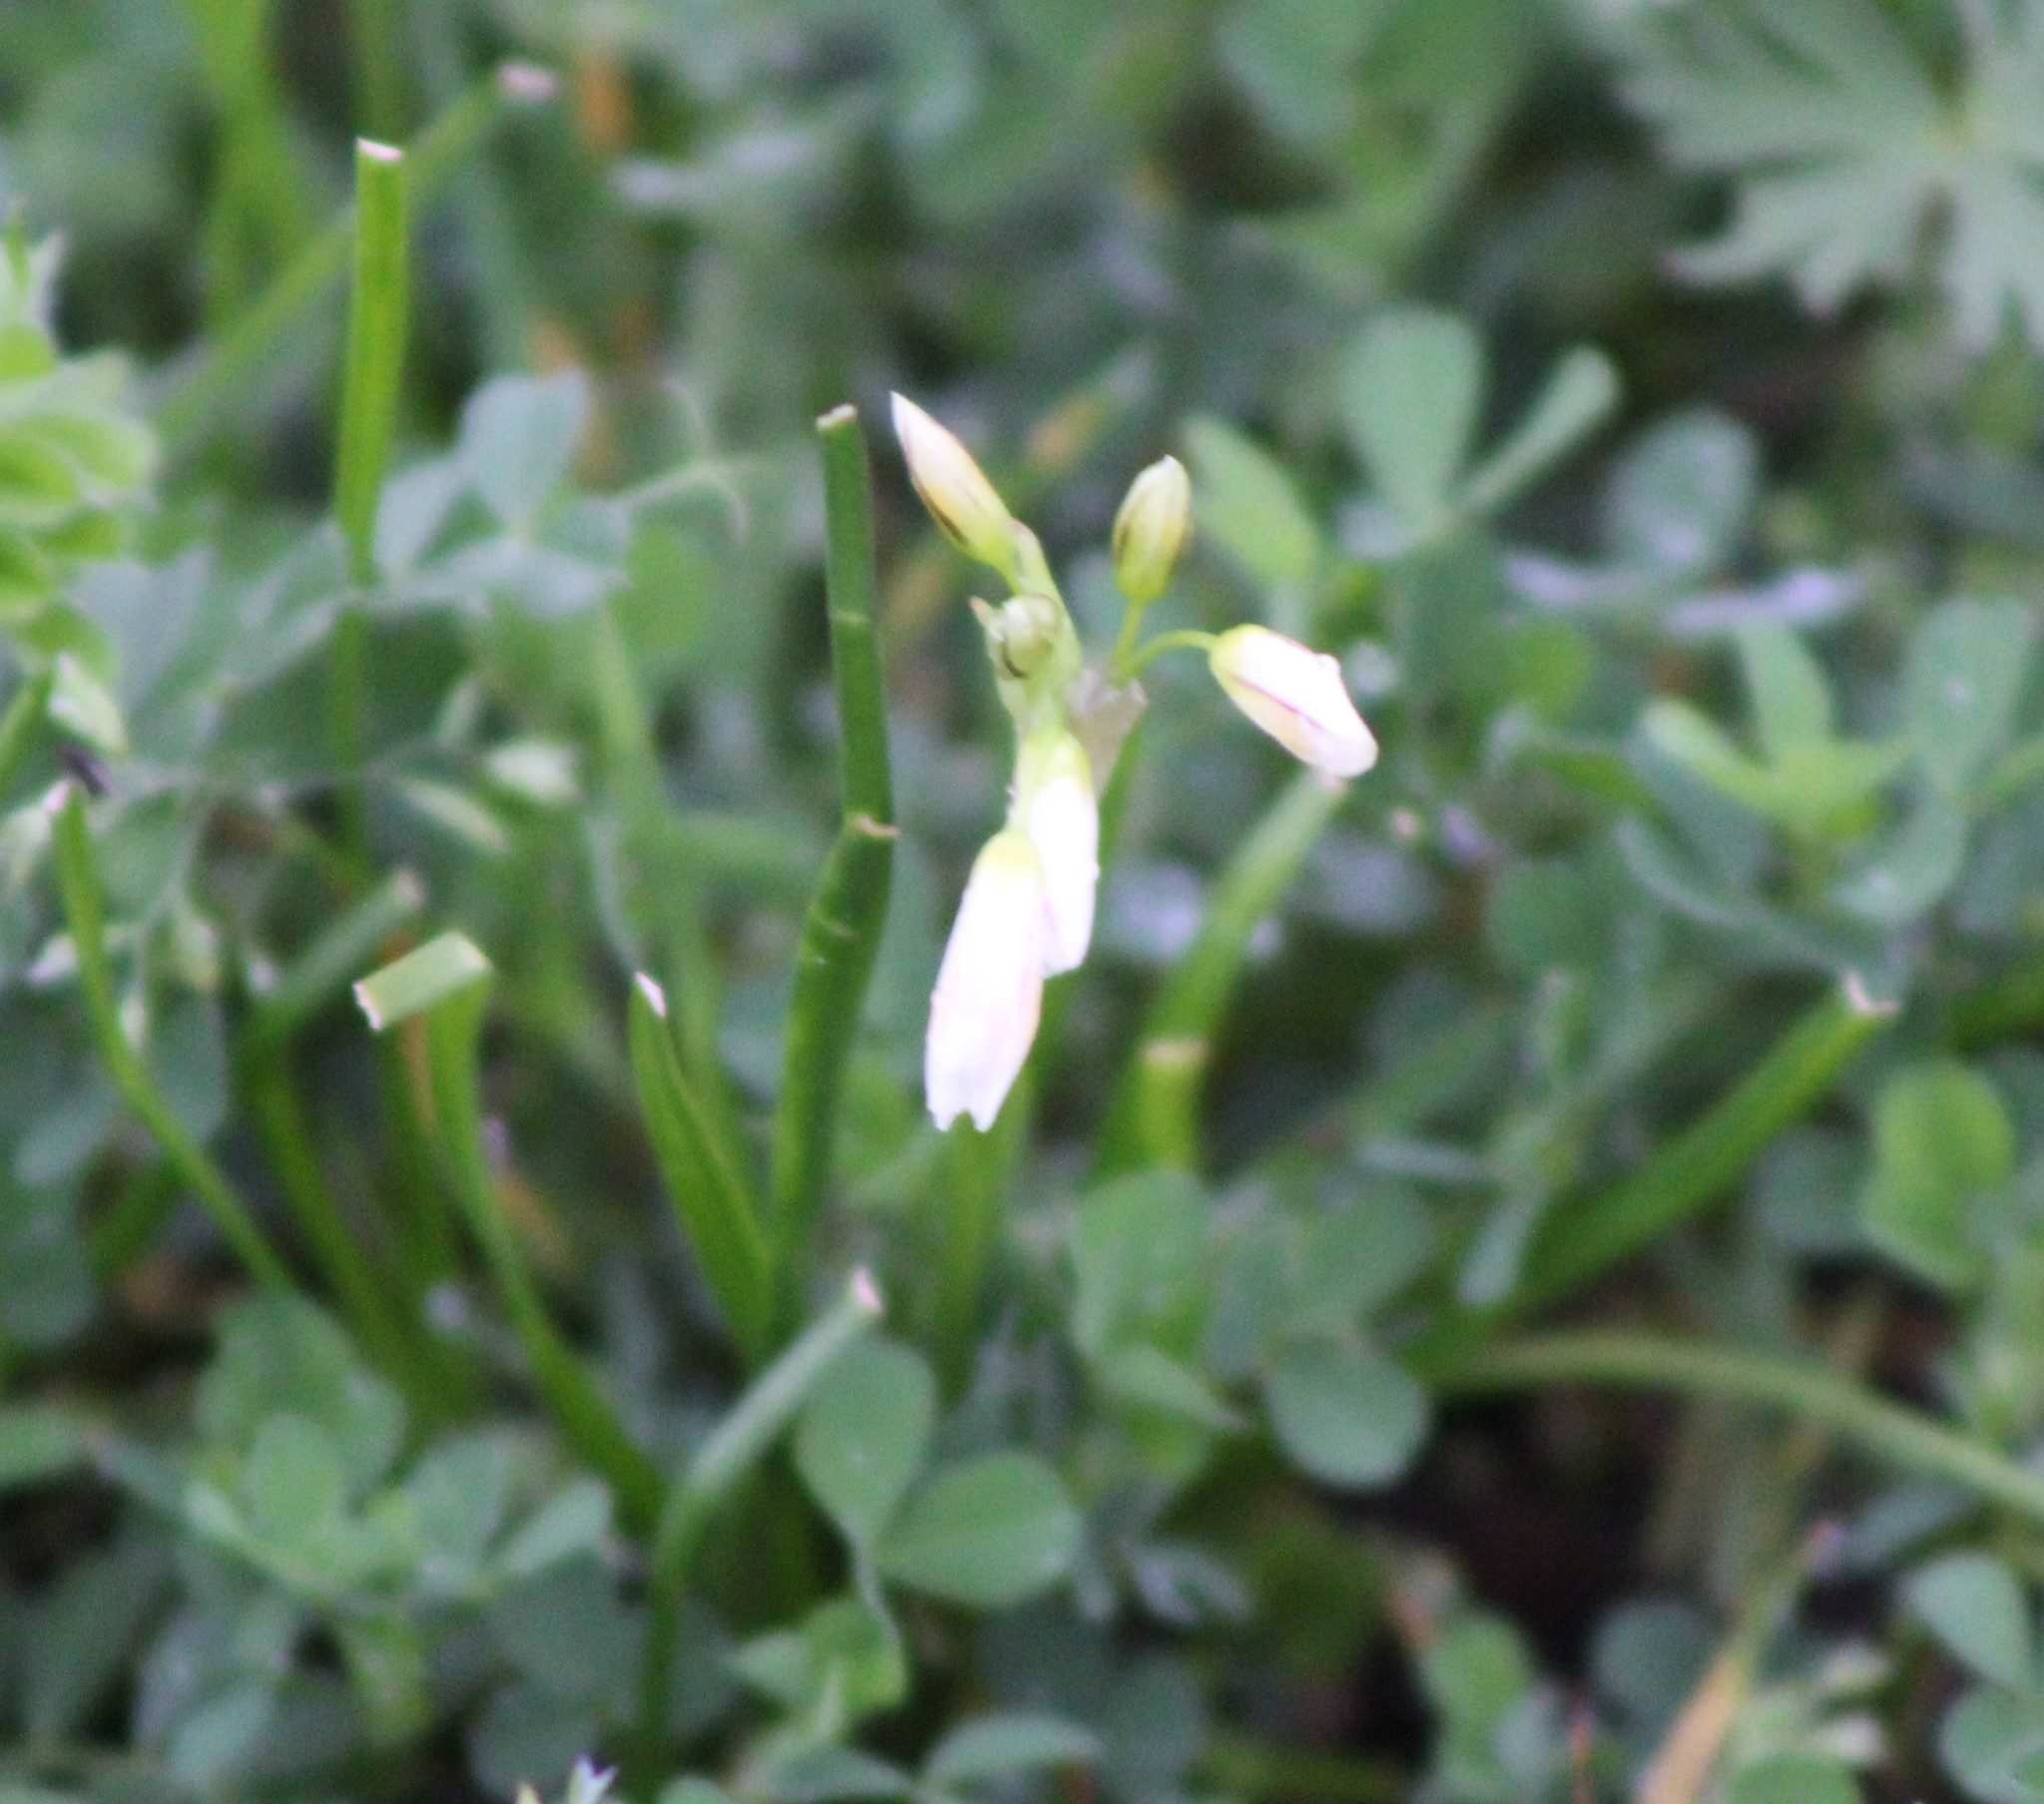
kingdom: Plantae
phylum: Tracheophyta
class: Liliopsida
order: Asparagales
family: Amaryllidaceae
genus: Nothoscordum
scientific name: Nothoscordum bivalve
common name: Crow-poison
